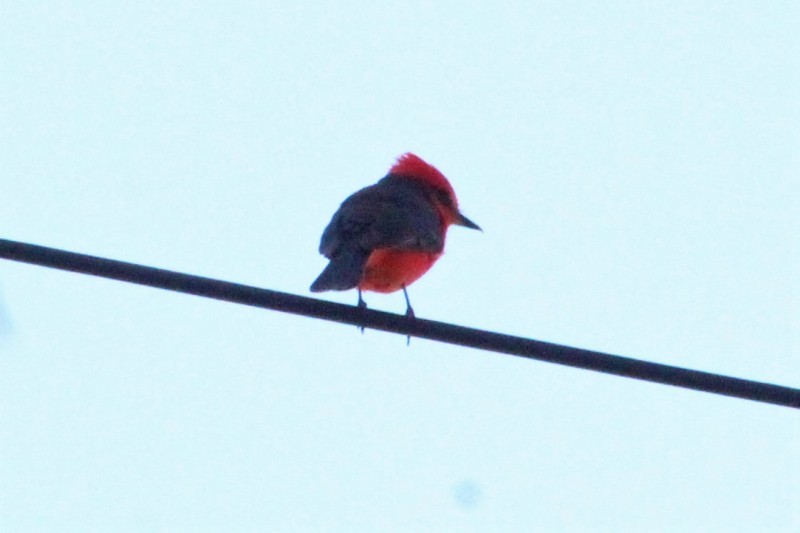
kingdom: Animalia
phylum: Chordata
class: Aves
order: Passeriformes
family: Tyrannidae
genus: Pyrocephalus
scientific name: Pyrocephalus rubinus
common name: Vermilion flycatcher
